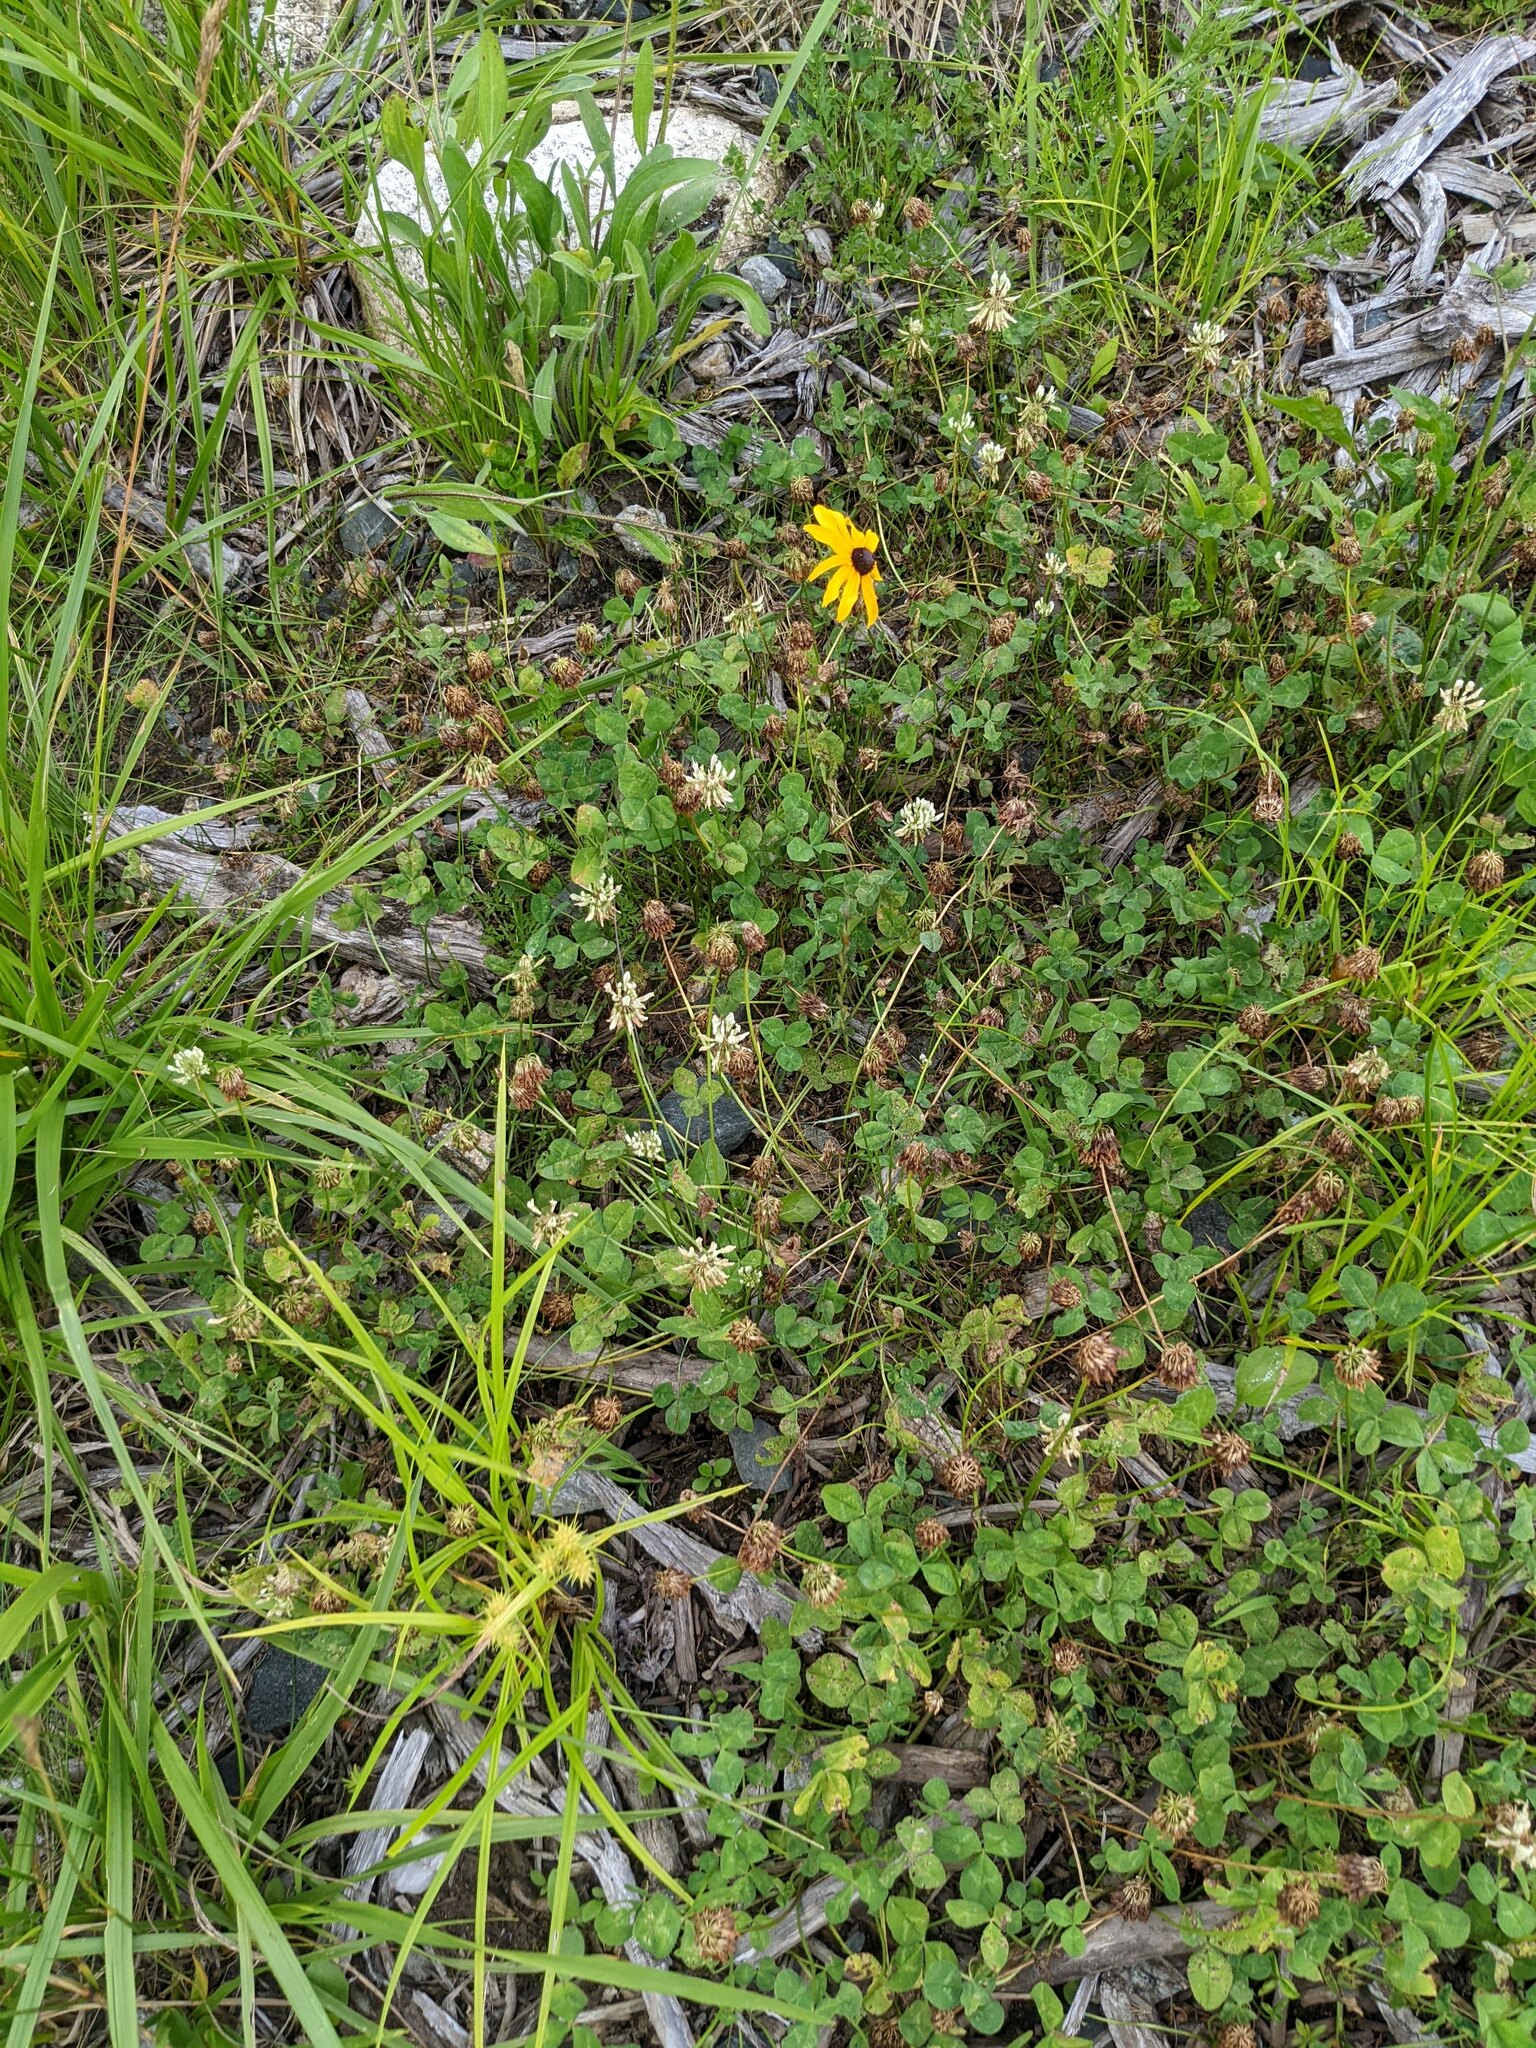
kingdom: Plantae
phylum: Tracheophyta
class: Magnoliopsida
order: Fabales
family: Fabaceae
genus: Trifolium
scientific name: Trifolium repens
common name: White clover
